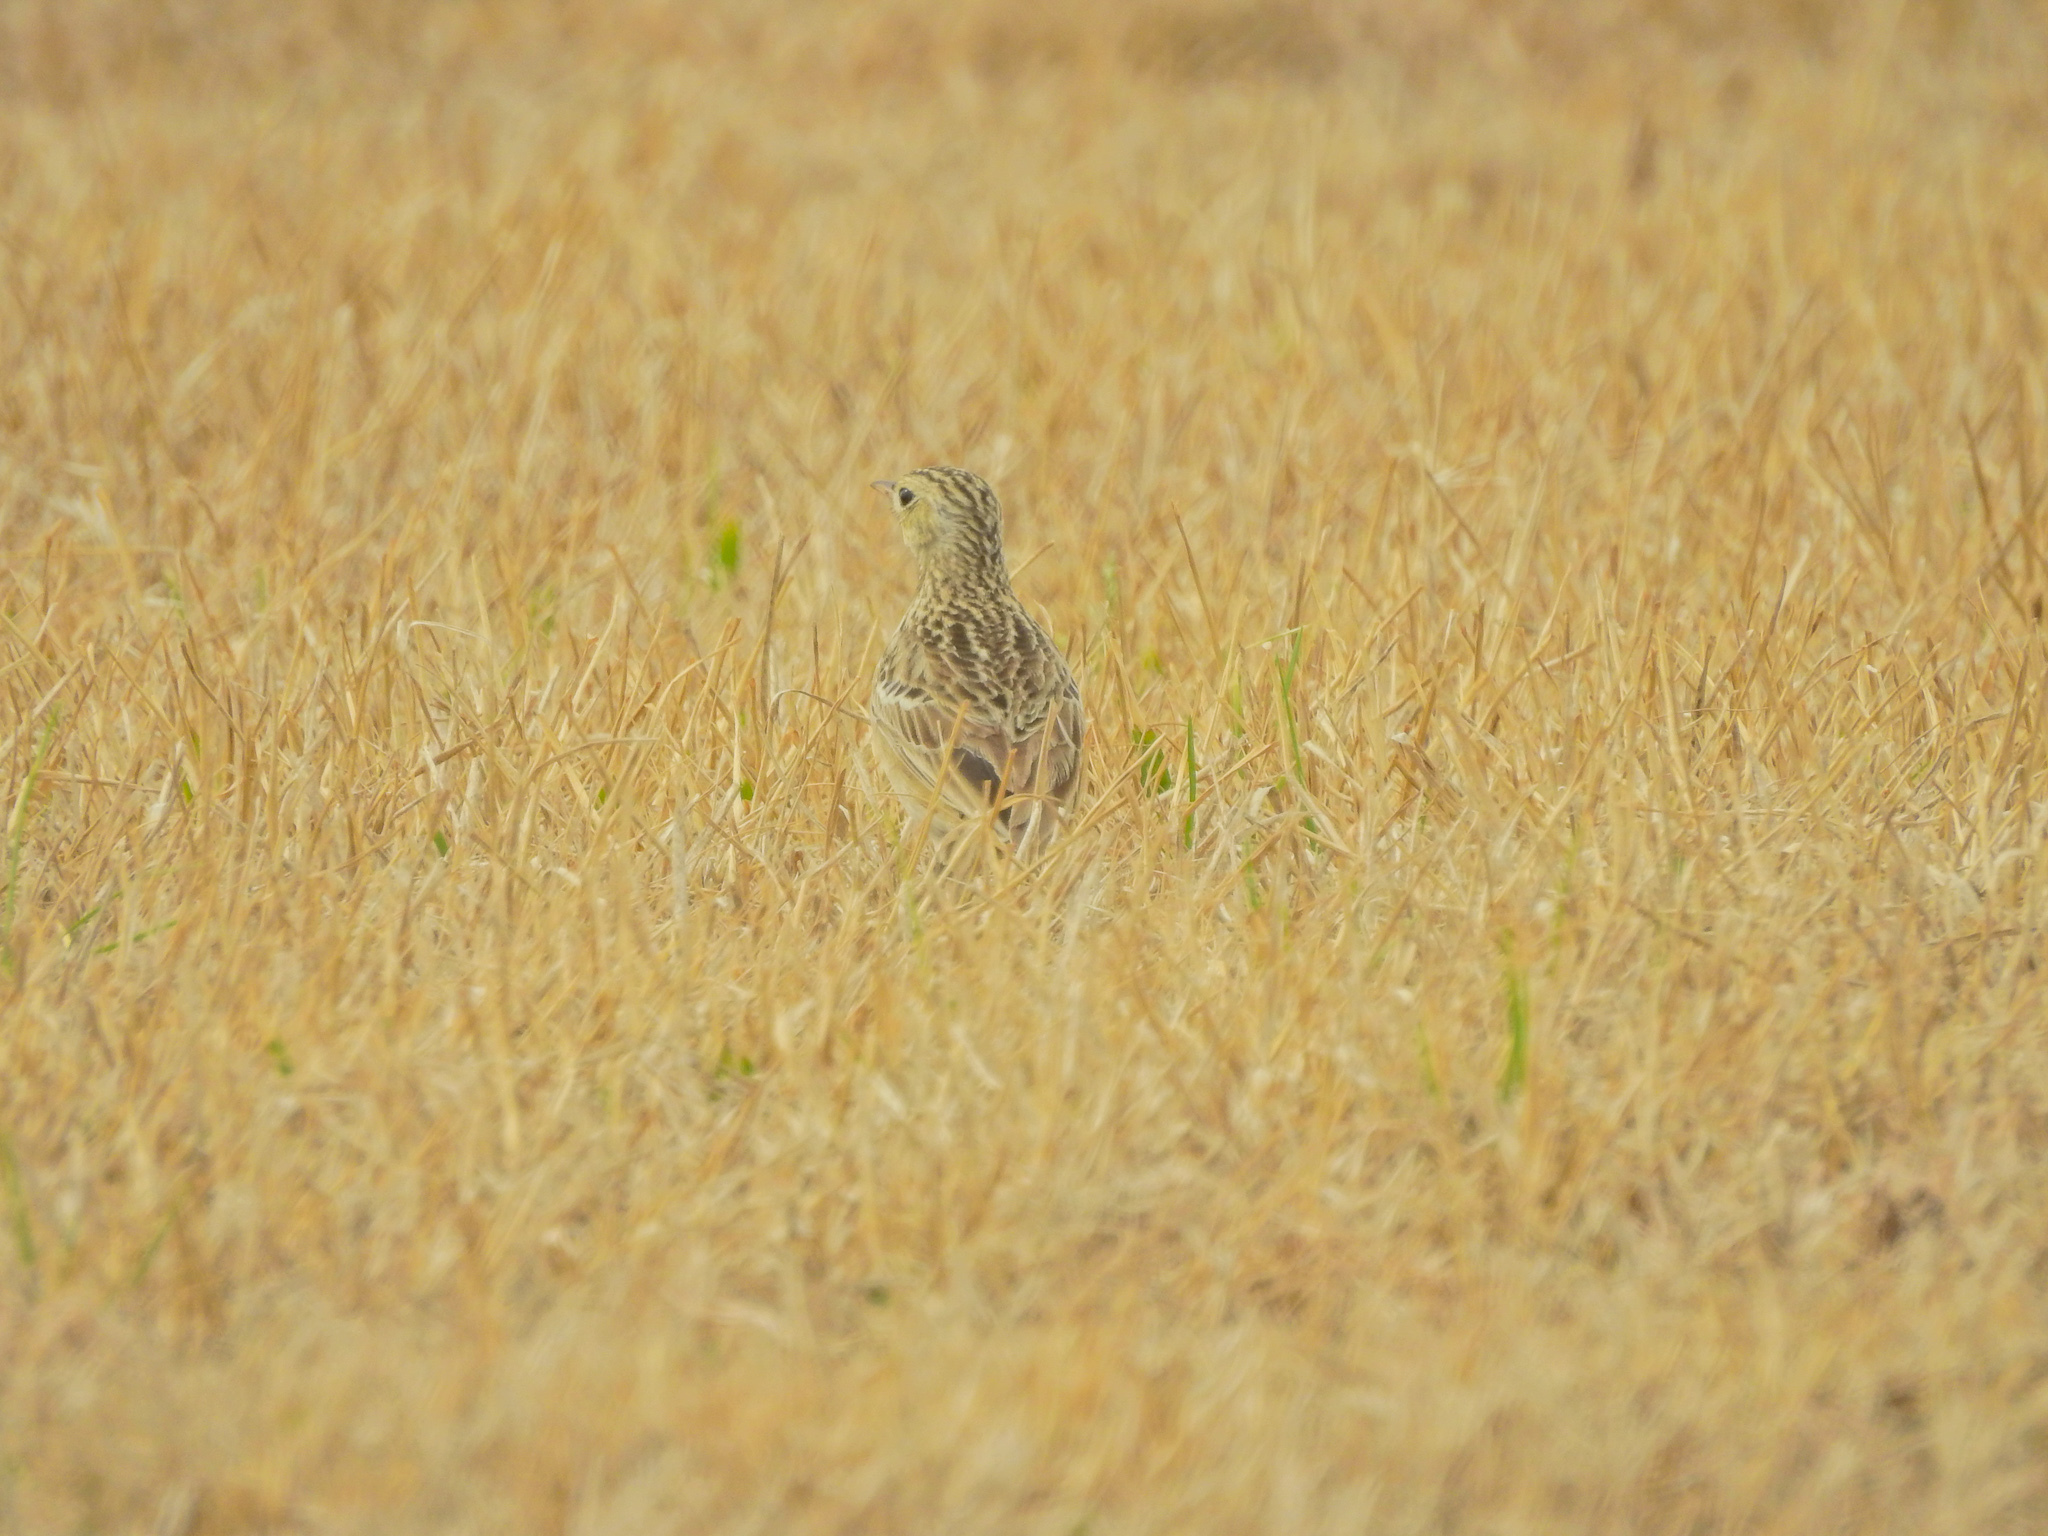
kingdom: Animalia
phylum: Chordata
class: Aves
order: Passeriformes
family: Motacillidae
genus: Anthus
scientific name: Anthus spragueii
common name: Sprague's pipit
